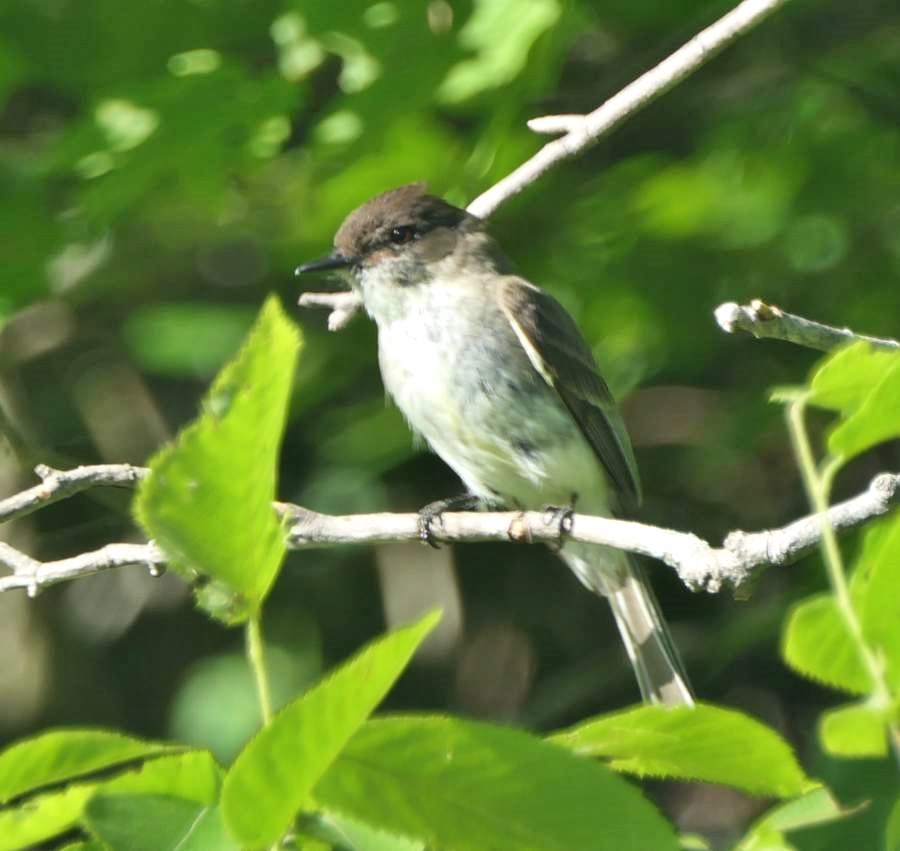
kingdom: Animalia
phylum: Chordata
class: Aves
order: Passeriformes
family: Tyrannidae
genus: Sayornis
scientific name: Sayornis phoebe
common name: Eastern phoebe
